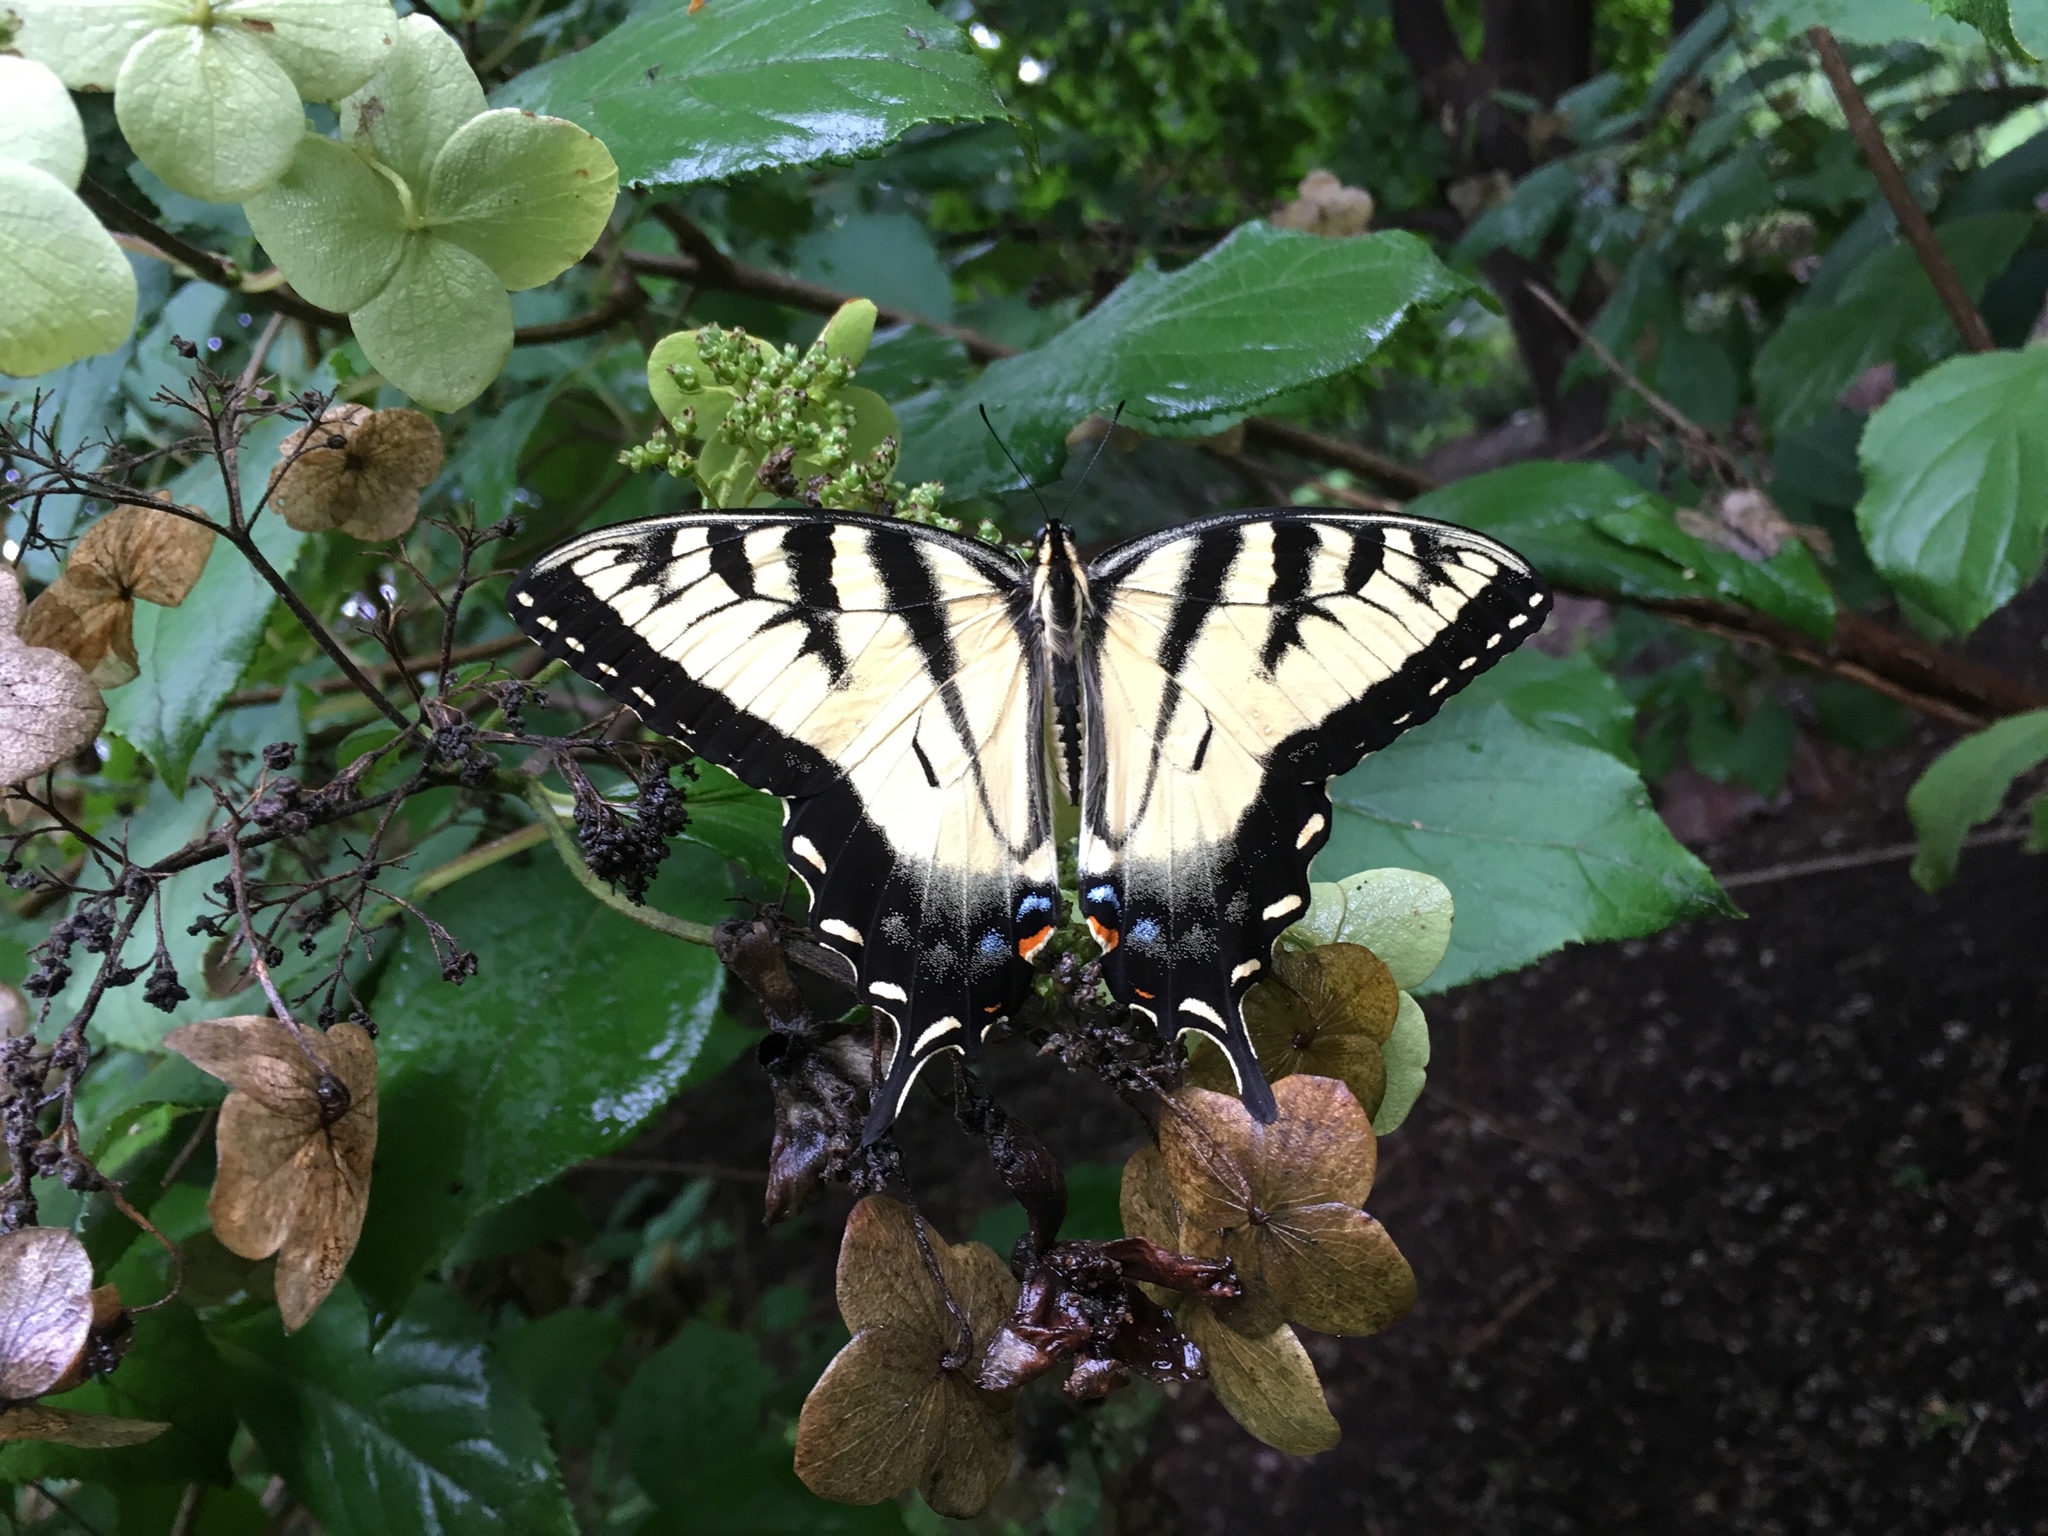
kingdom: Animalia
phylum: Arthropoda
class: Insecta
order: Lepidoptera
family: Papilionidae
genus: Papilio
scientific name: Papilio glaucus
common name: Tiger swallowtail
